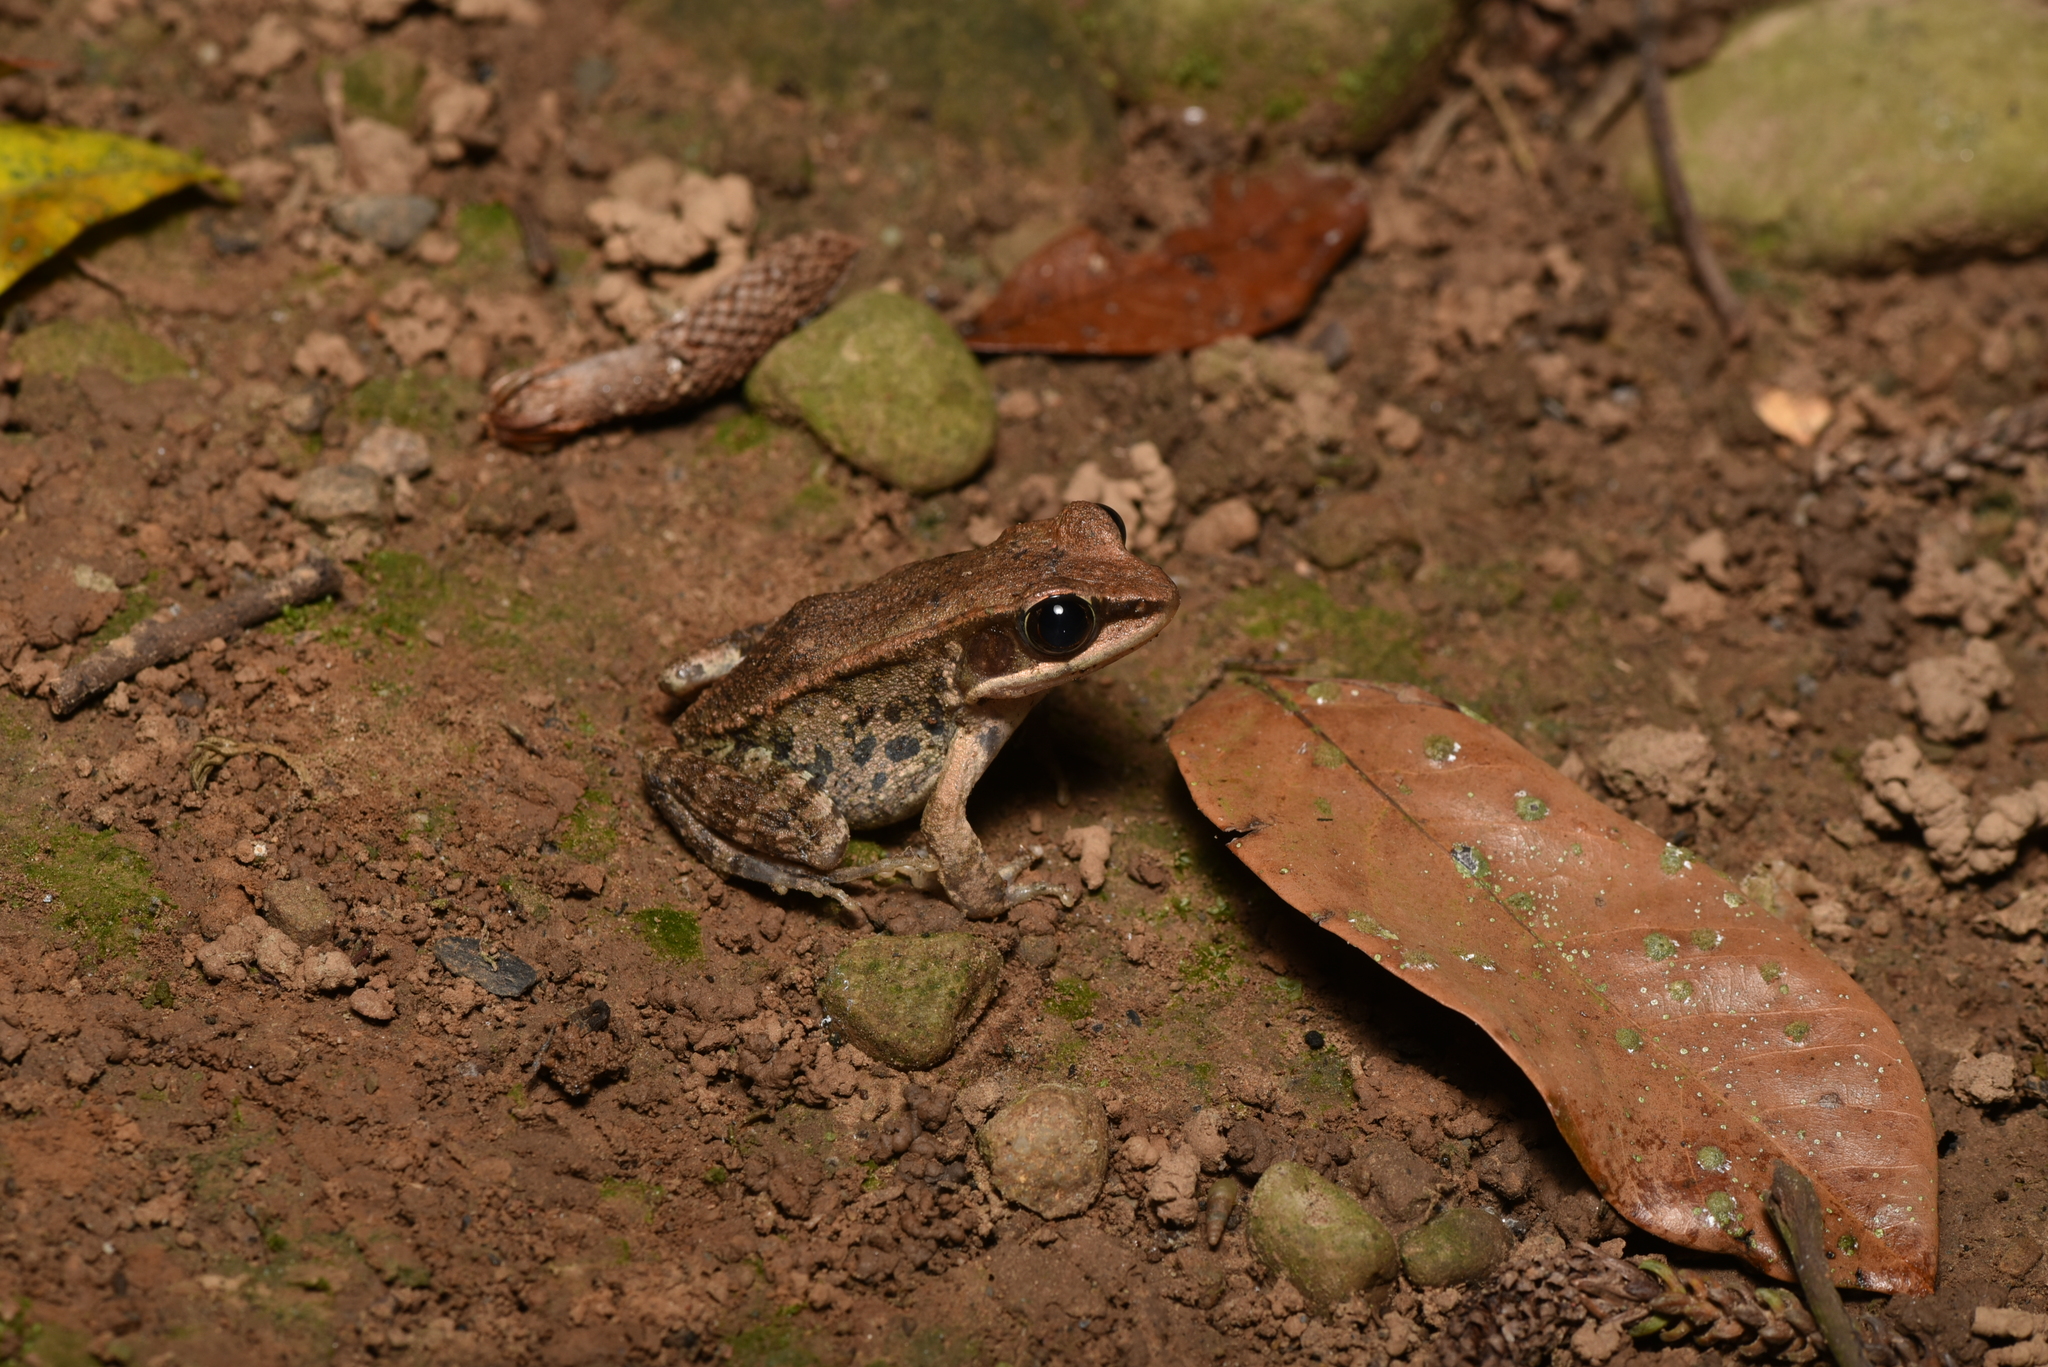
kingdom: Animalia
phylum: Chordata
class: Amphibia
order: Anura
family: Ranidae
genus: Hylarana
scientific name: Hylarana latouchii
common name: Broad-folded frog
